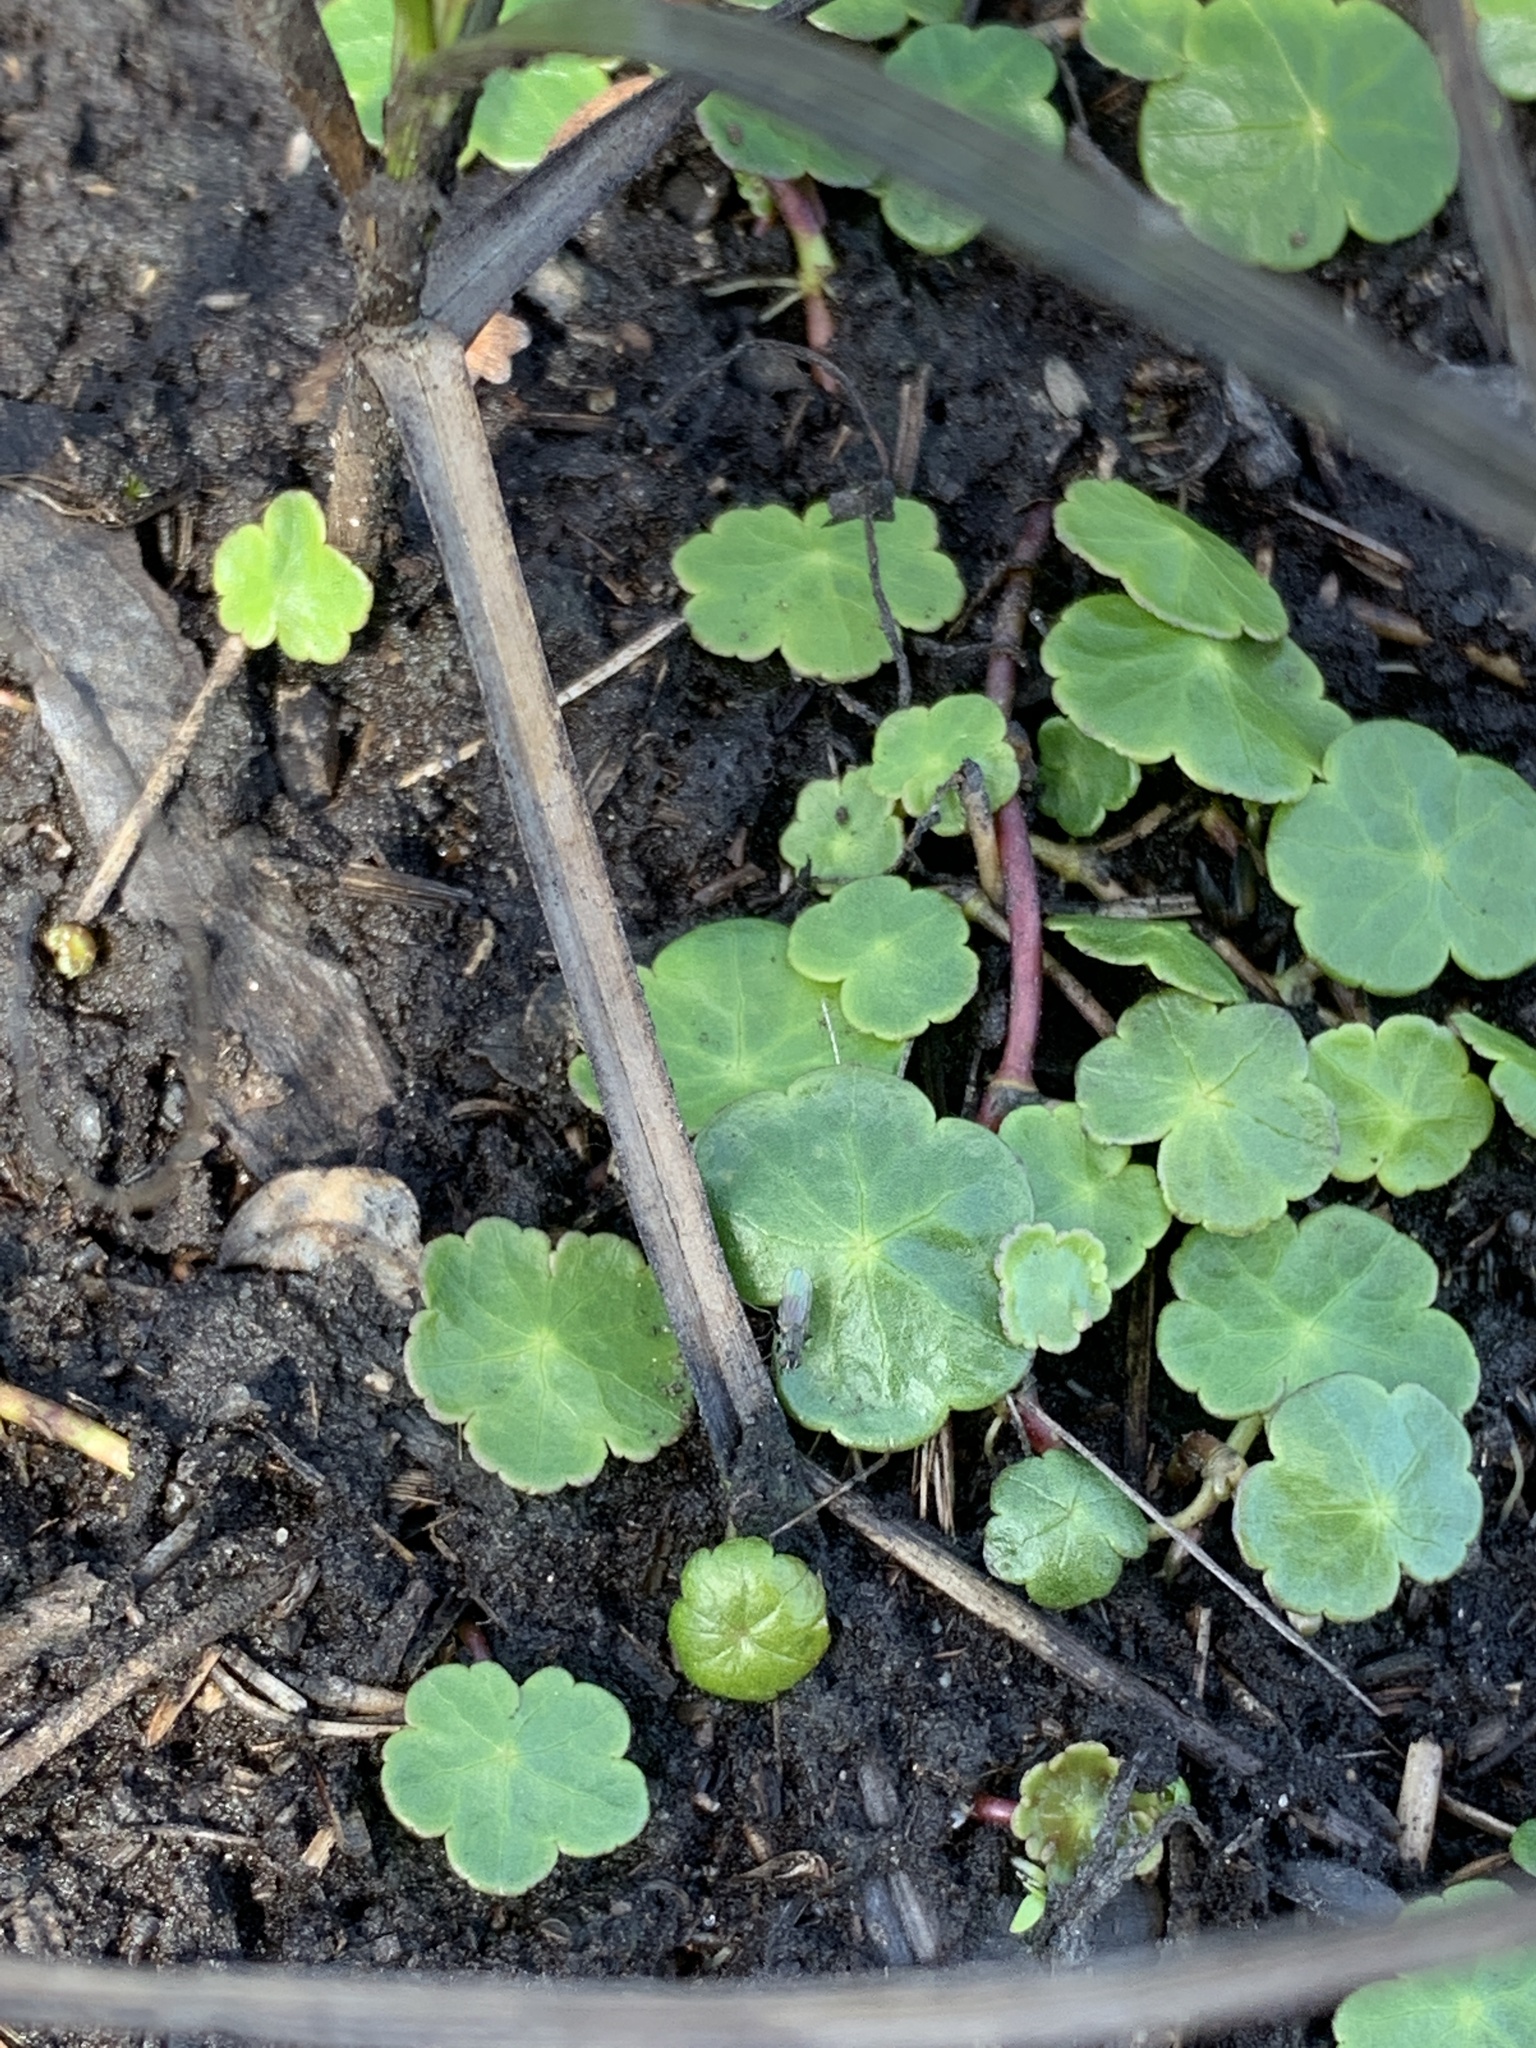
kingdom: Plantae
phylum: Tracheophyta
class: Magnoliopsida
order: Apiales
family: Araliaceae
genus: Hydrocotyle
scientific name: Hydrocotyle vulgaris
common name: Marsh pennywort
